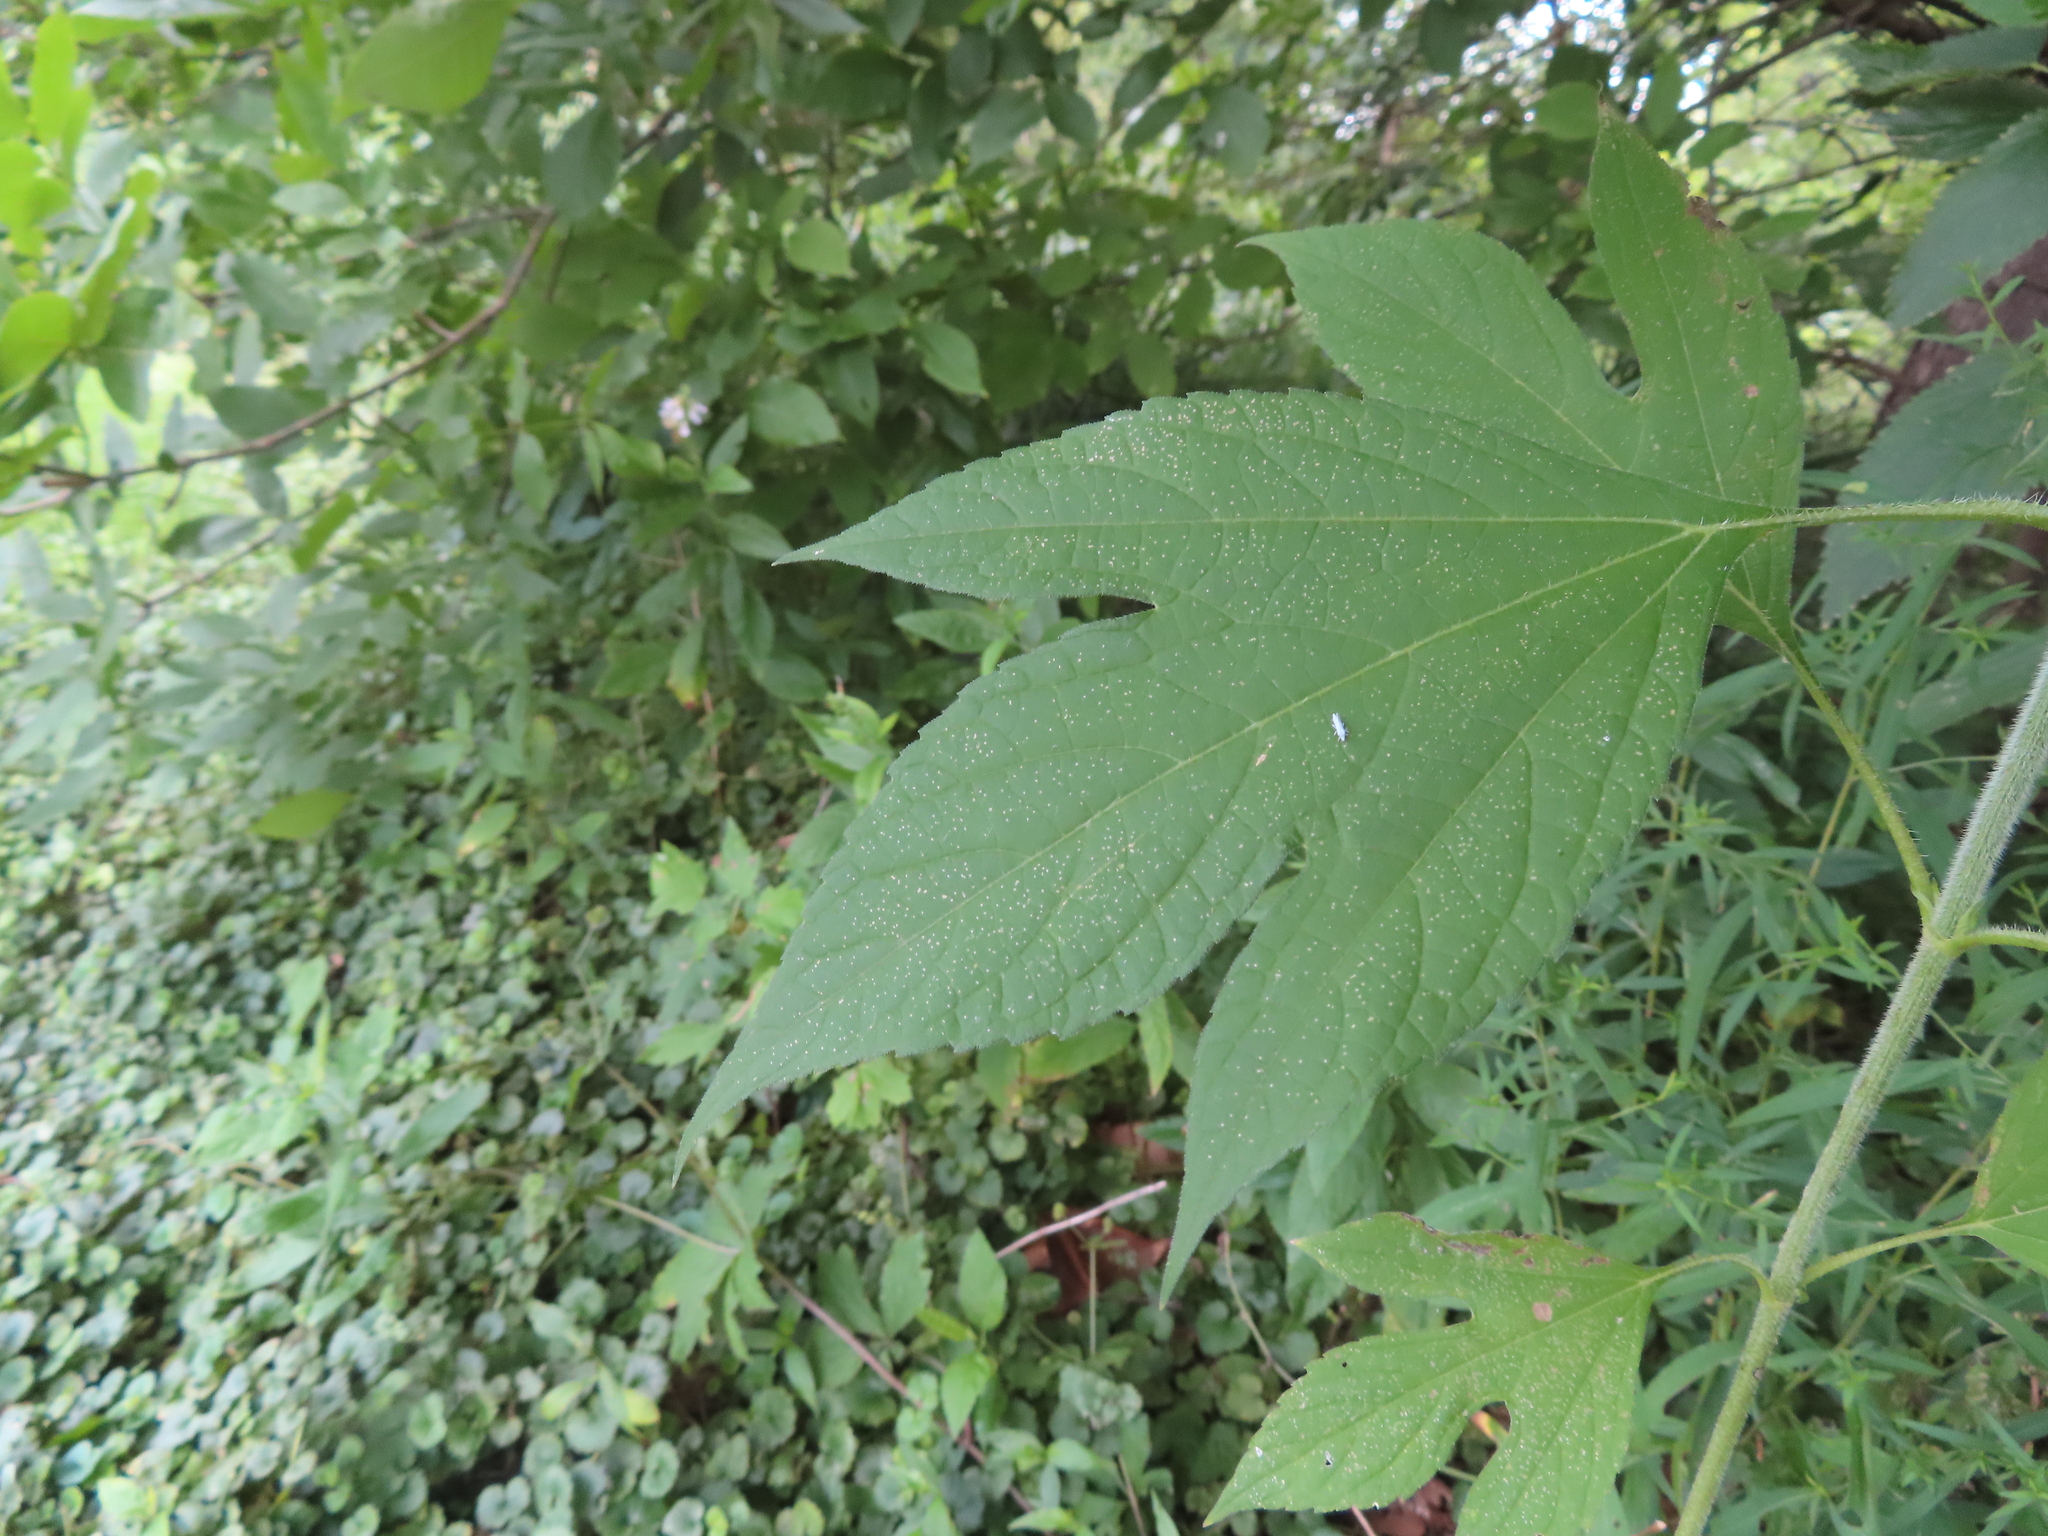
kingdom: Plantae
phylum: Tracheophyta
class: Magnoliopsida
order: Asterales
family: Asteraceae
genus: Ambrosia
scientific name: Ambrosia trifida
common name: Giant ragweed
